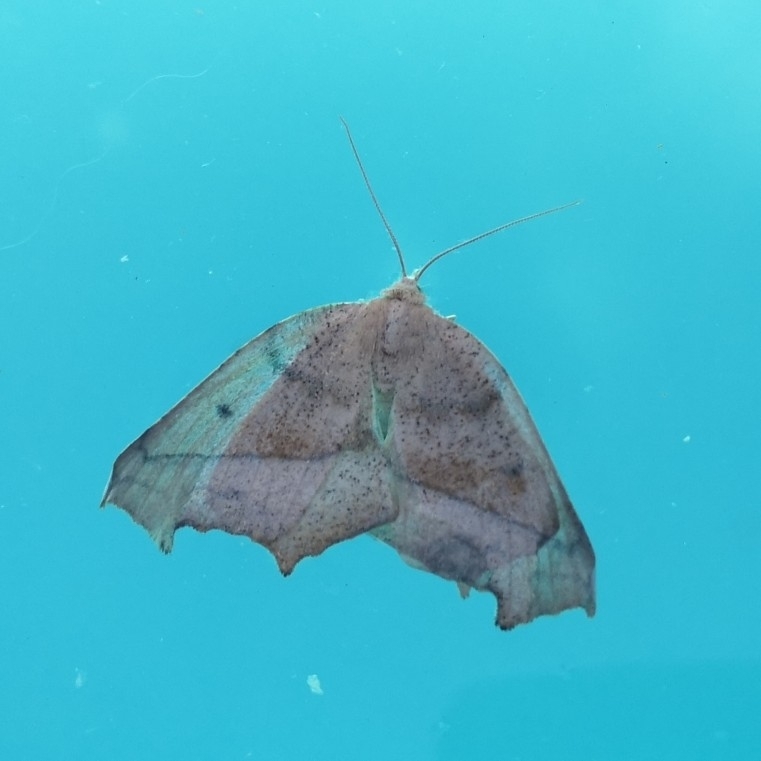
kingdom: Animalia
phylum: Arthropoda
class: Insecta
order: Lepidoptera
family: Geometridae
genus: Syncirsodes
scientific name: Syncirsodes primata
